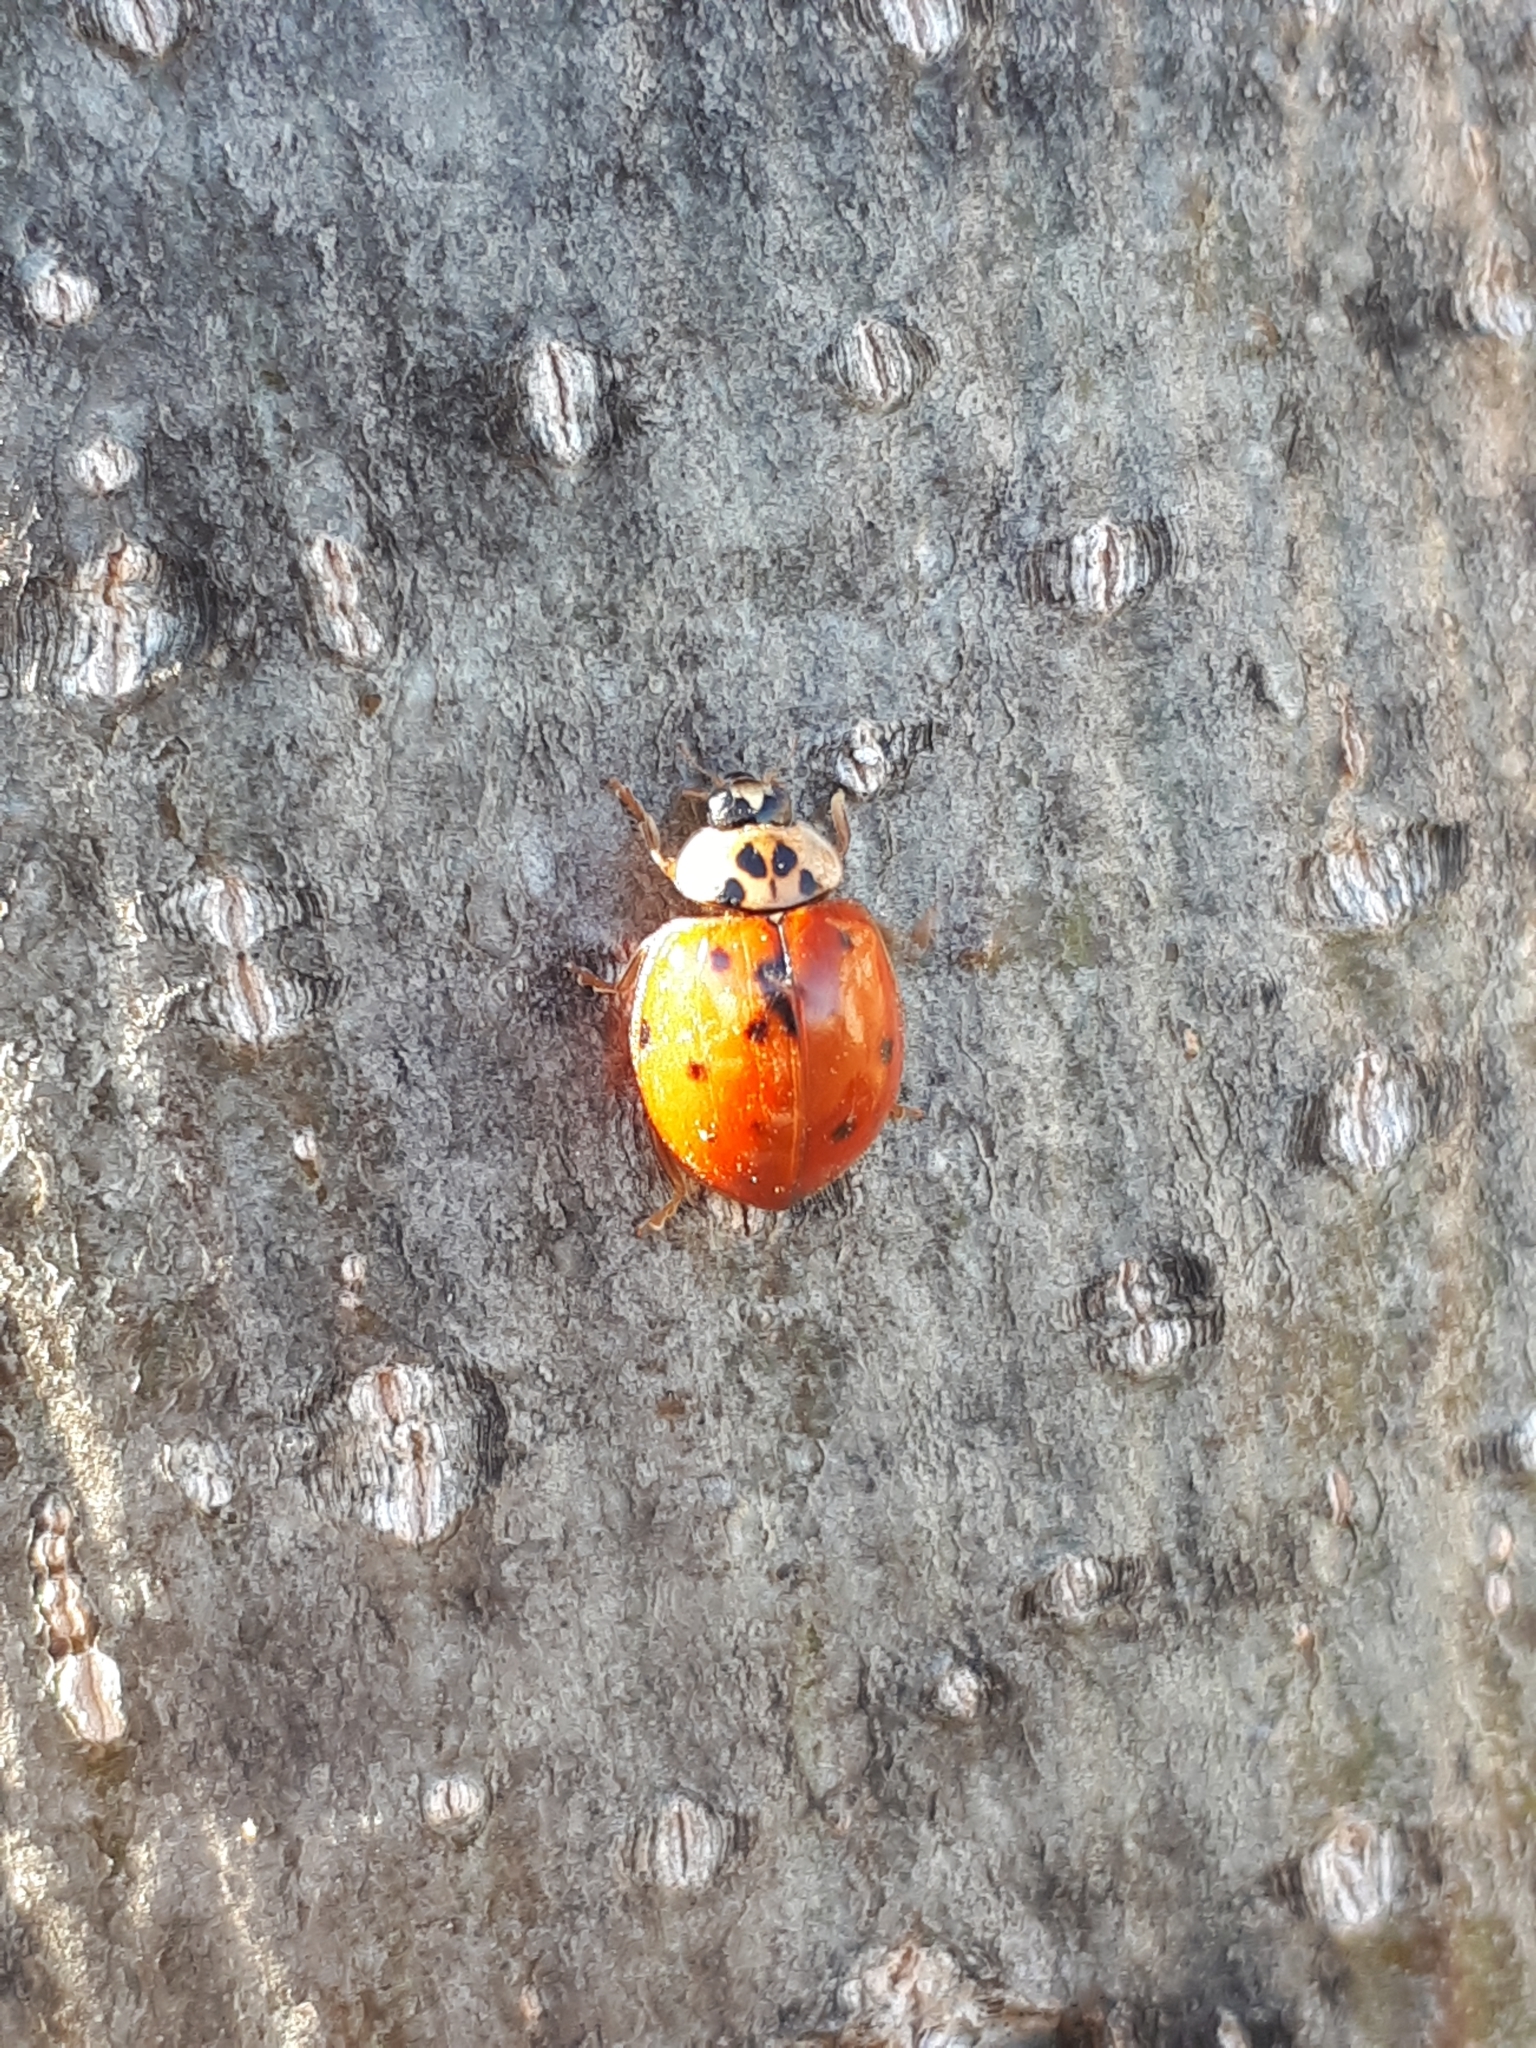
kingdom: Animalia
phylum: Arthropoda
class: Insecta
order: Coleoptera
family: Coccinellidae
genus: Harmonia
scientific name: Harmonia axyridis
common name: Harlequin ladybird
